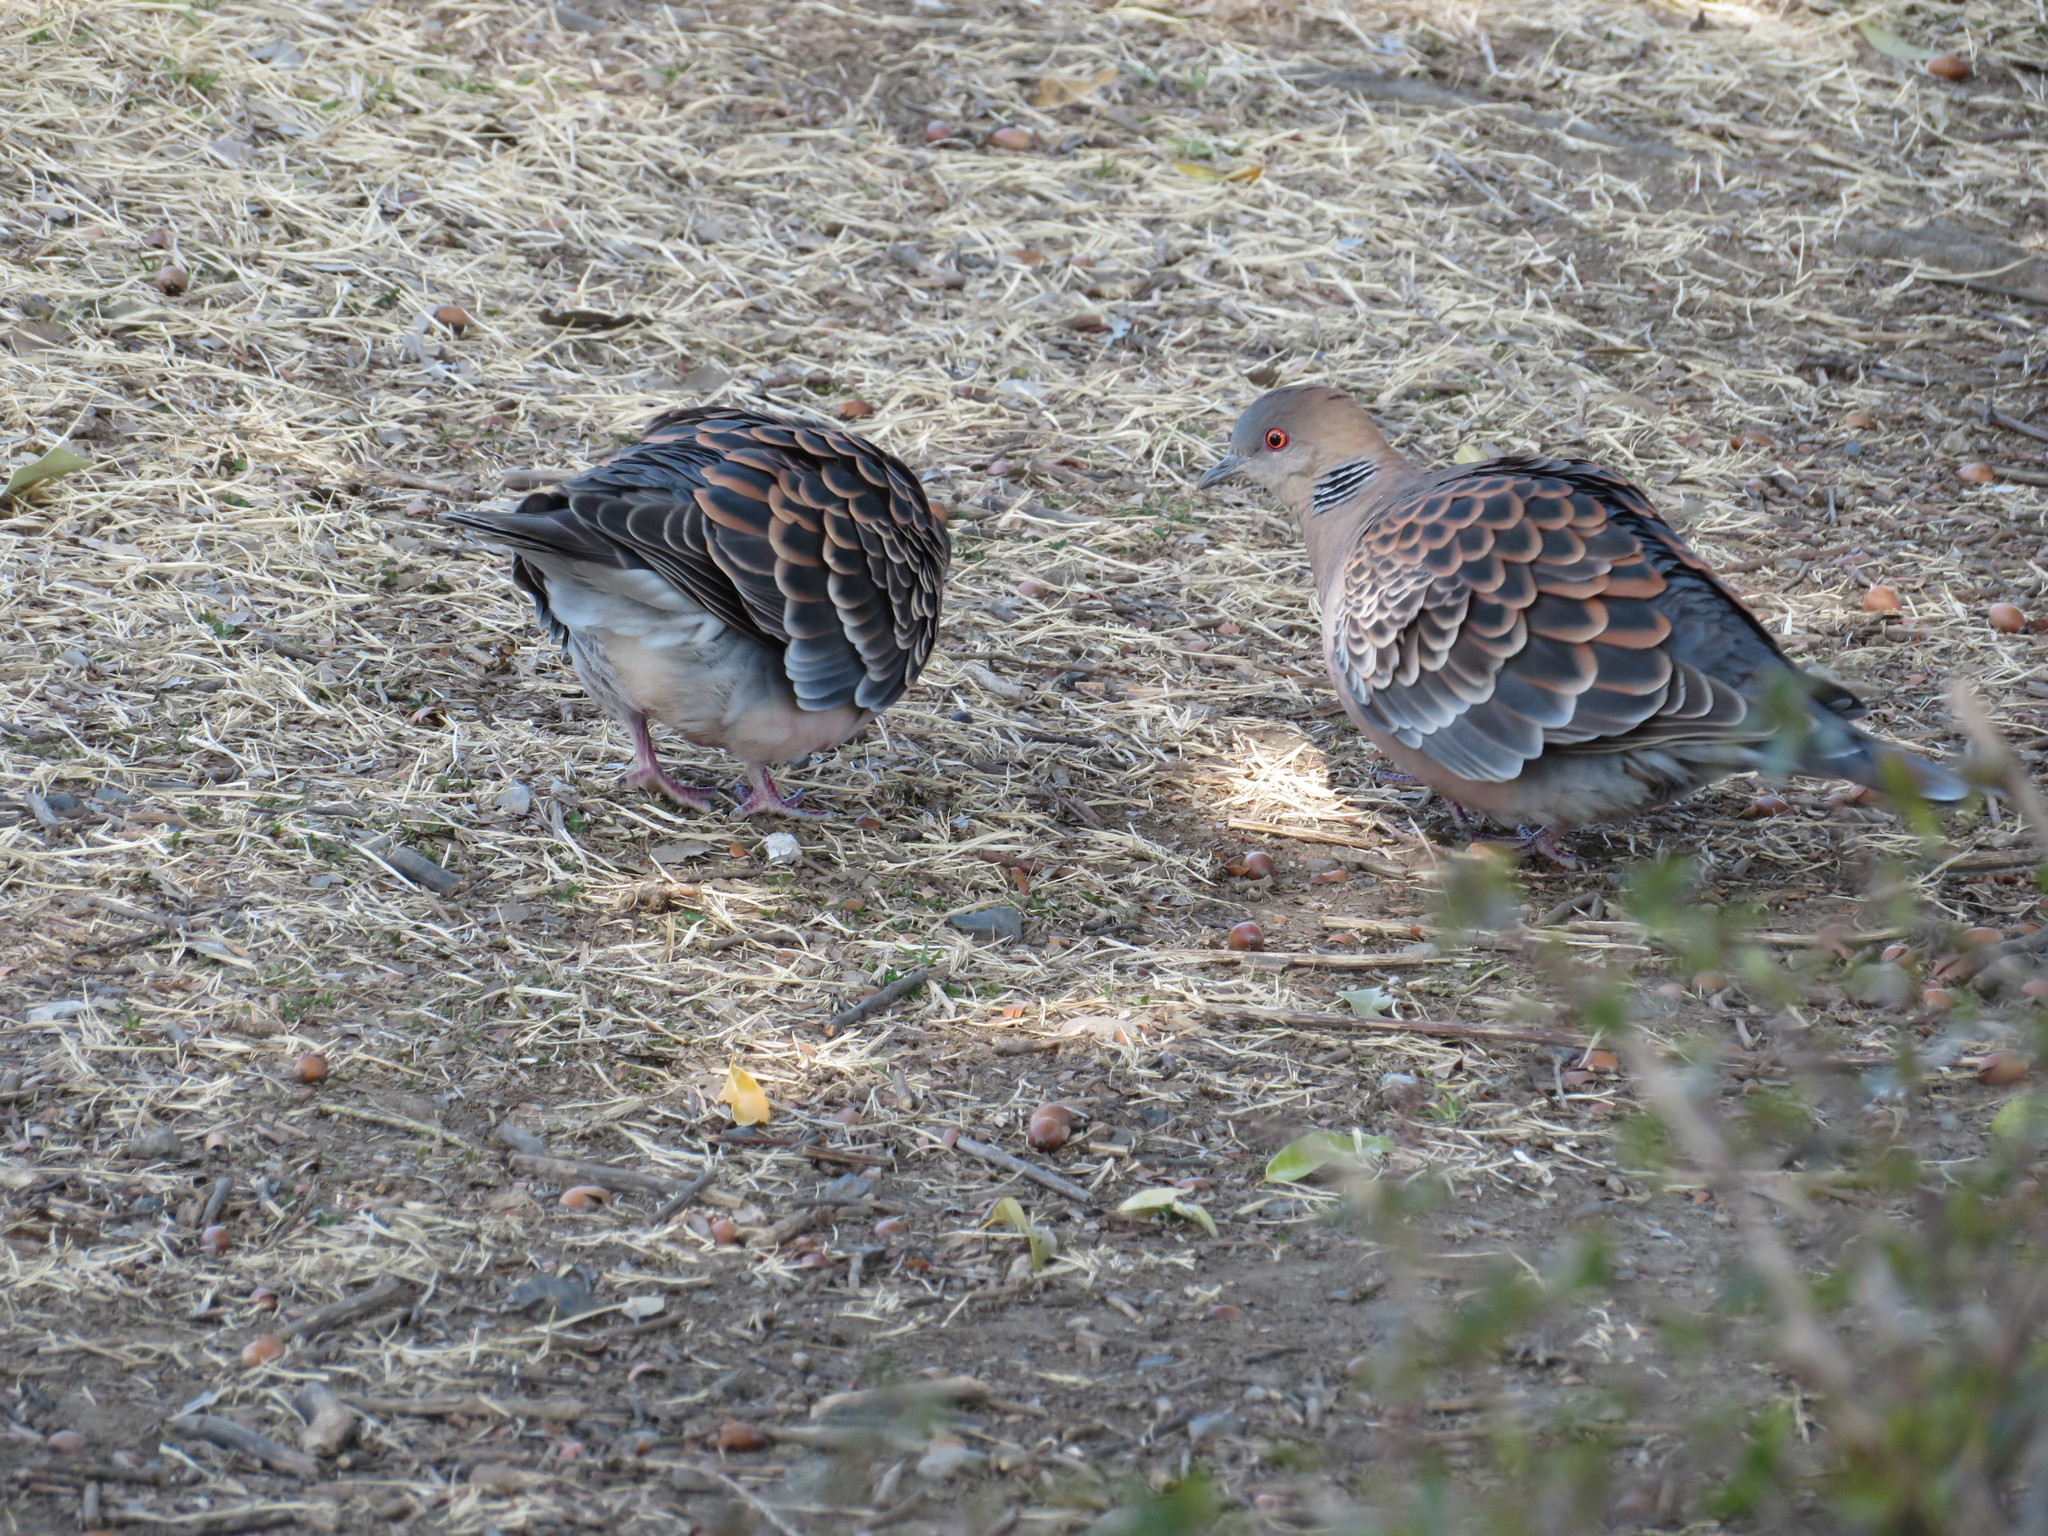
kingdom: Animalia
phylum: Chordata
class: Aves
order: Columbiformes
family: Columbidae
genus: Streptopelia
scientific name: Streptopelia orientalis
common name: Oriental turtle dove
